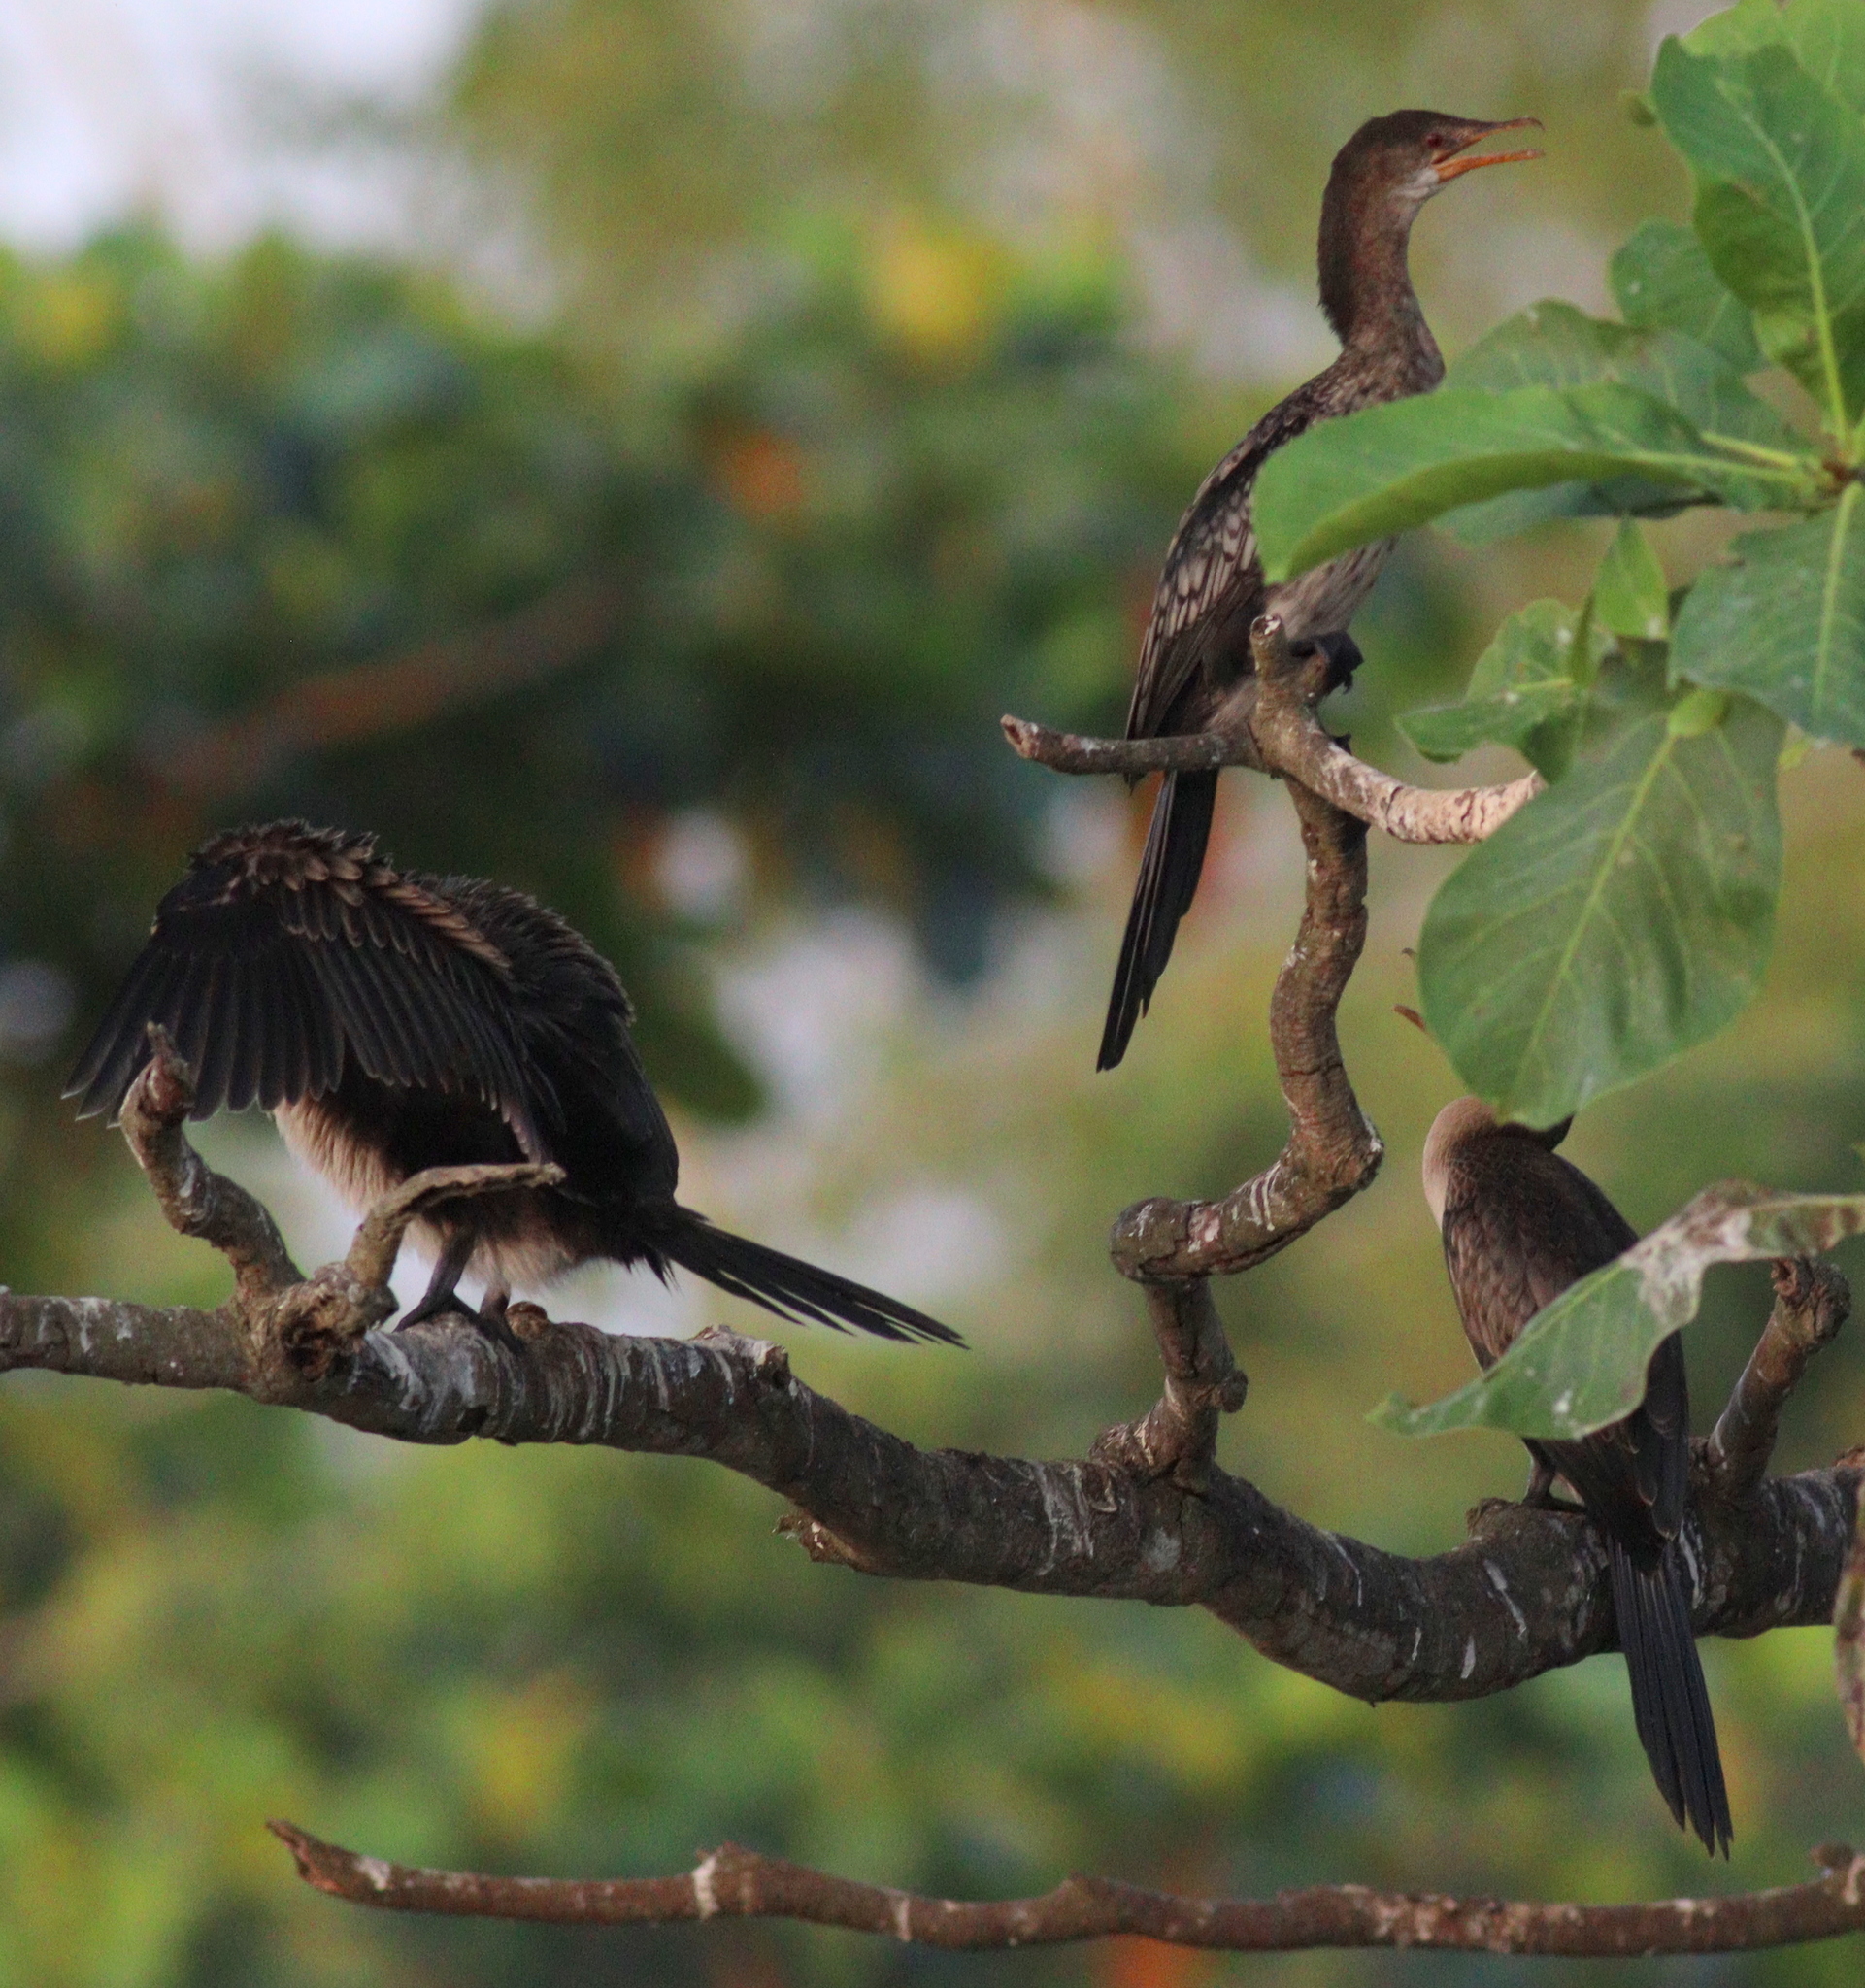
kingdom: Animalia
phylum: Chordata
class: Aves
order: Suliformes
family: Phalacrocoracidae
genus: Microcarbo
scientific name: Microcarbo africanus
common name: Long-tailed cormorant
